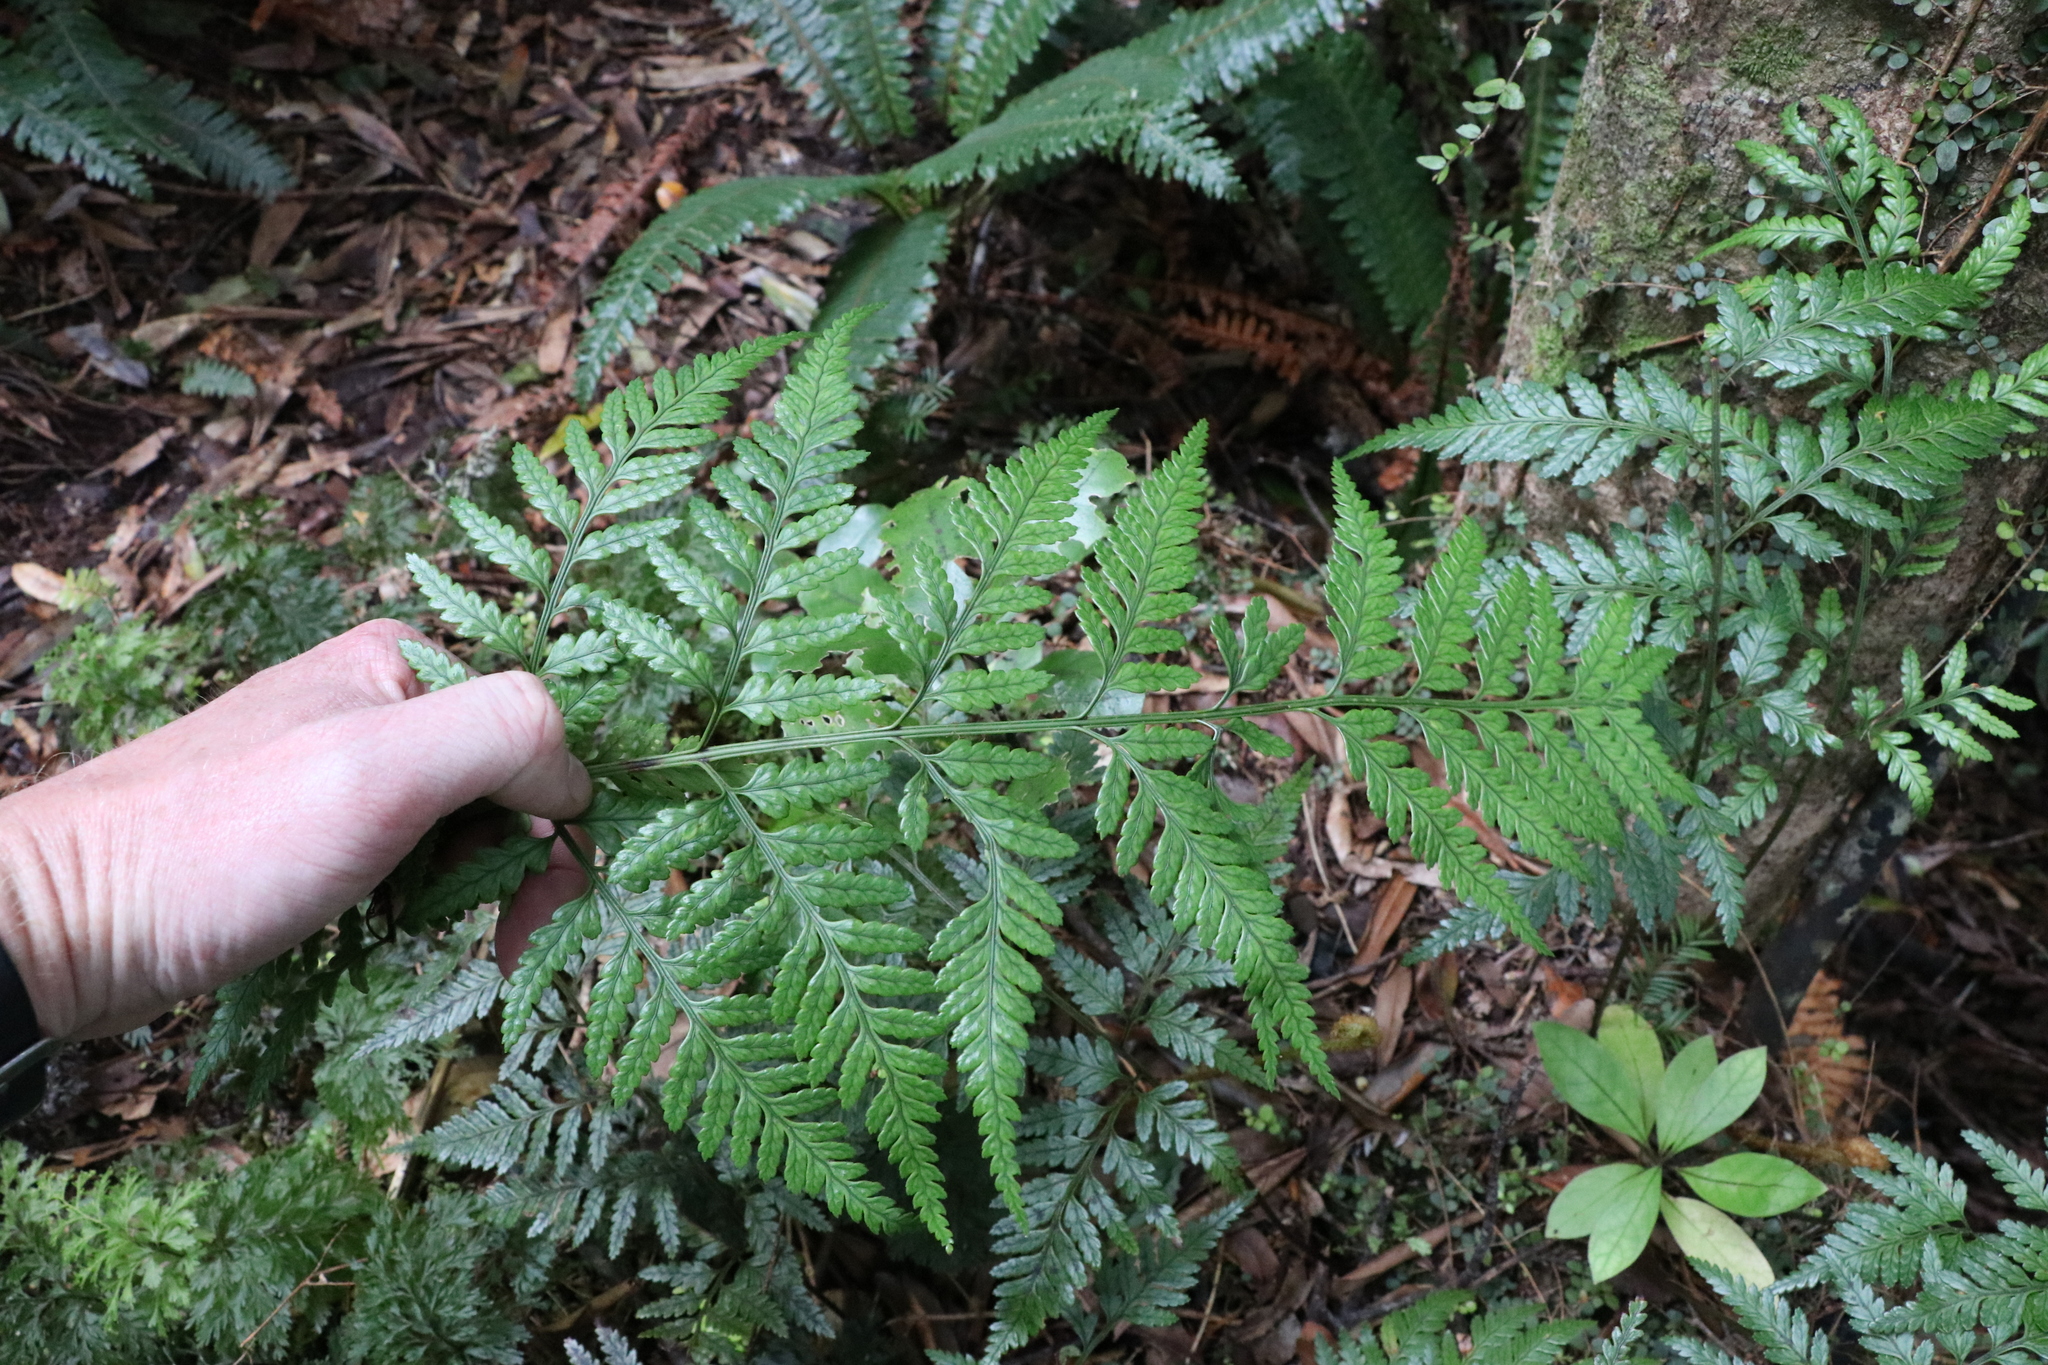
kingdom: Plantae
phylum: Tracheophyta
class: Polypodiopsida
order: Polypodiales
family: Dryopteridaceae
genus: Rumohra
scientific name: Rumohra adiantiformis
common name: Leather fern
